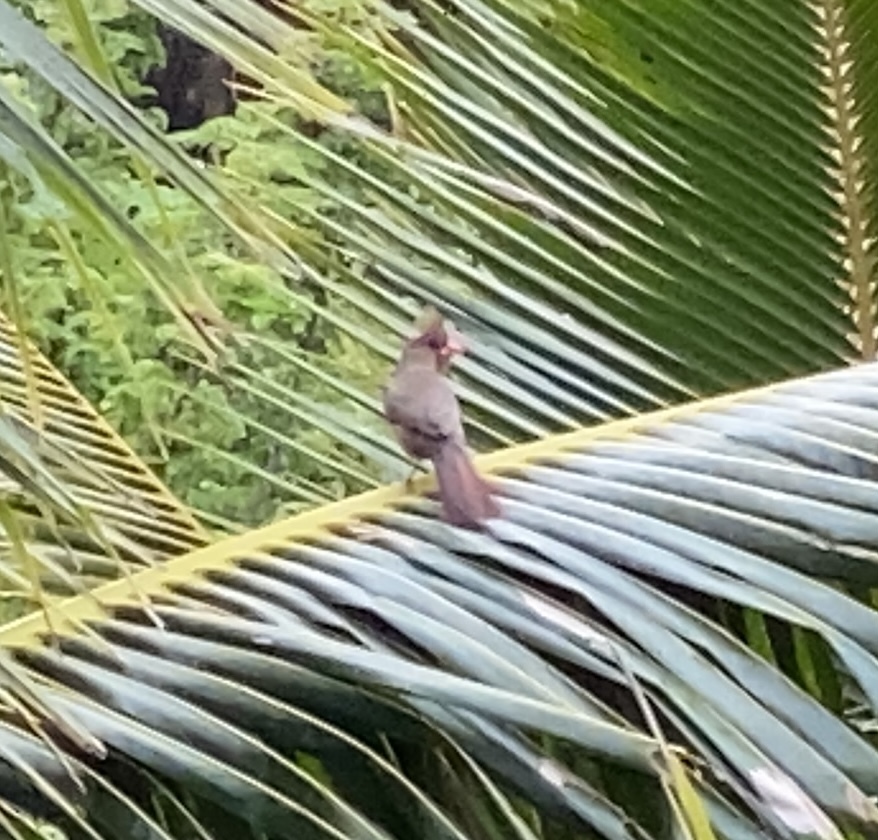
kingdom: Animalia
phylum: Chordata
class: Aves
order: Passeriformes
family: Cardinalidae
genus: Cardinalis
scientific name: Cardinalis cardinalis
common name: Northern cardinal
